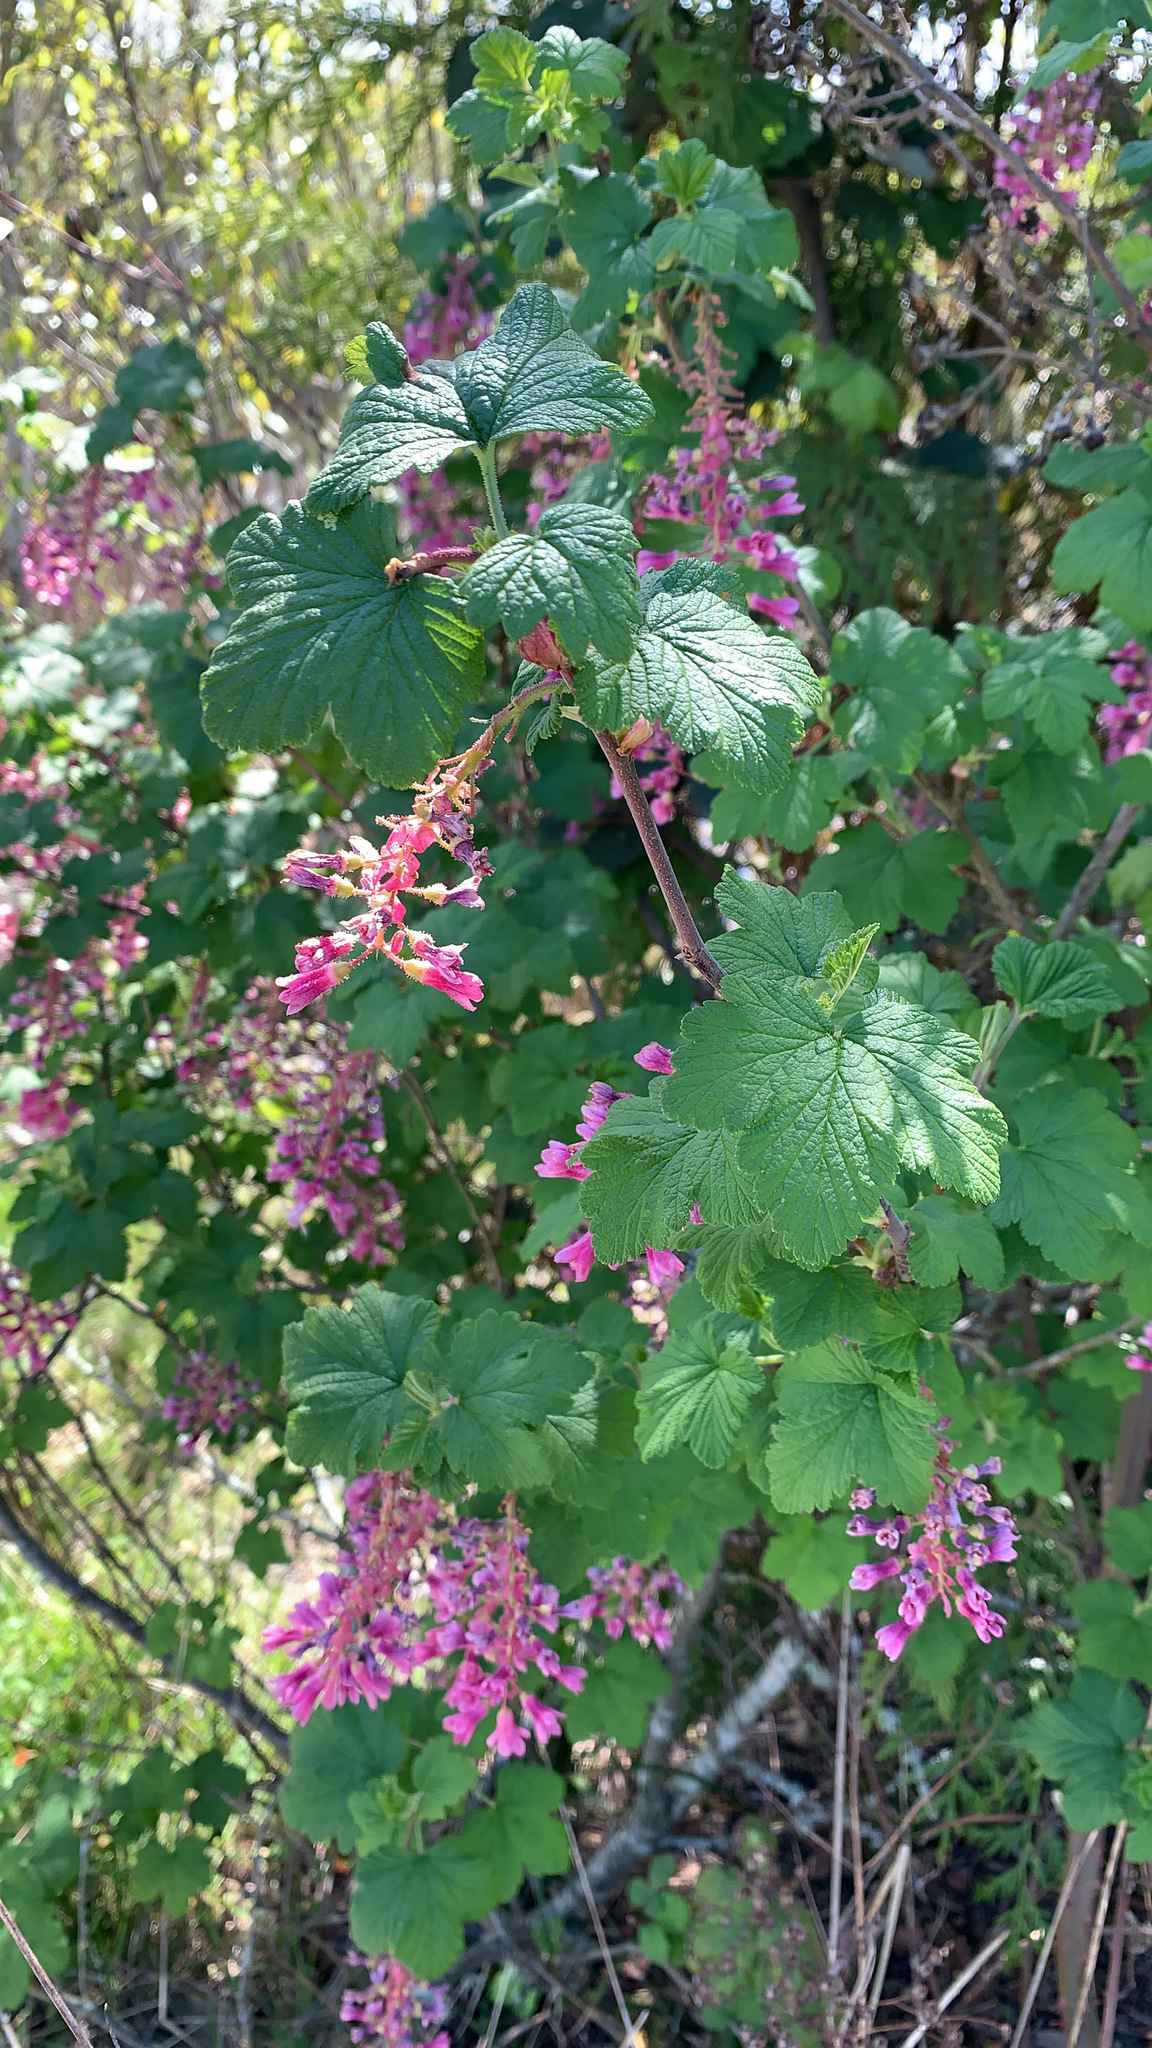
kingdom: Plantae
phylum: Tracheophyta
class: Magnoliopsida
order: Saxifragales
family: Grossulariaceae
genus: Ribes
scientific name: Ribes sanguineum
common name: Flowering currant
